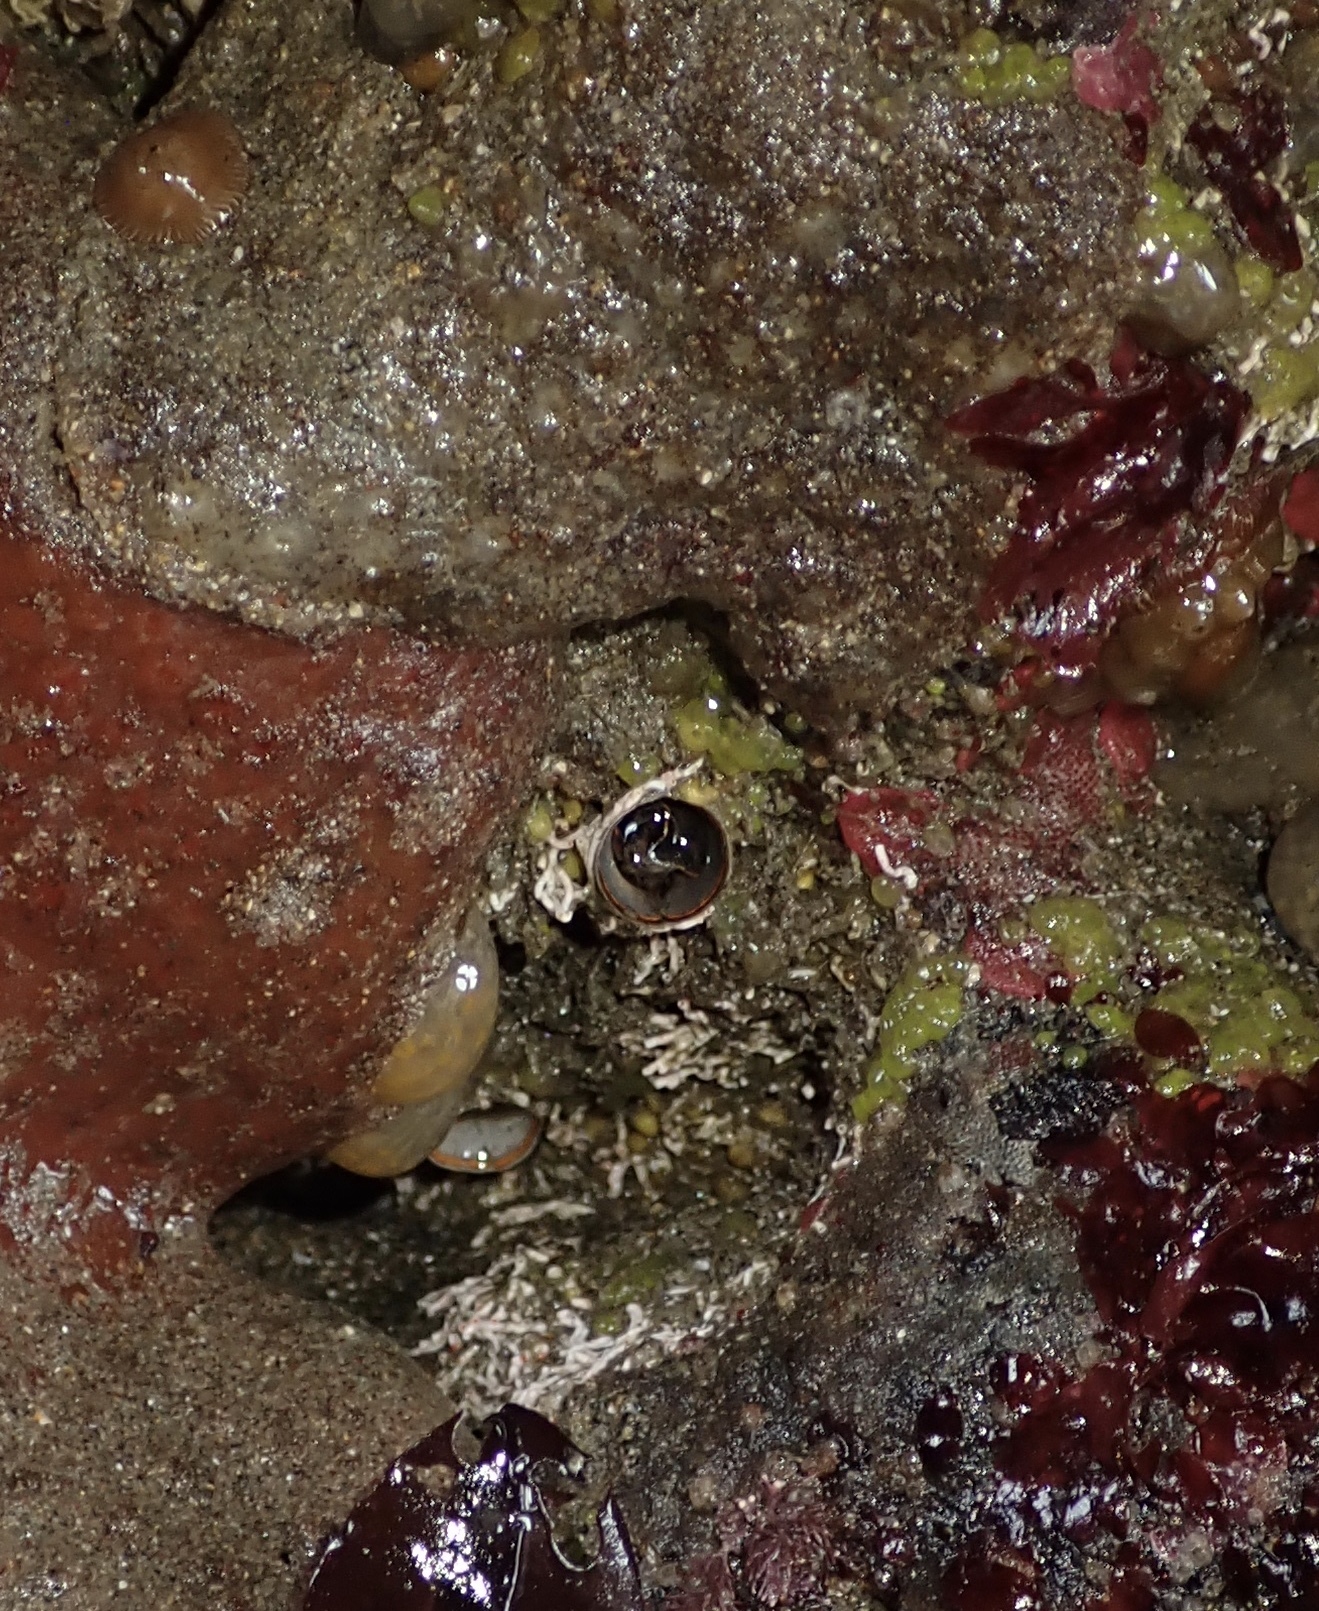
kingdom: Animalia
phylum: Mollusca
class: Gastropoda
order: Littorinimorpha
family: Vermetidae
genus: Thylacodes
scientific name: Thylacodes squamigerus
